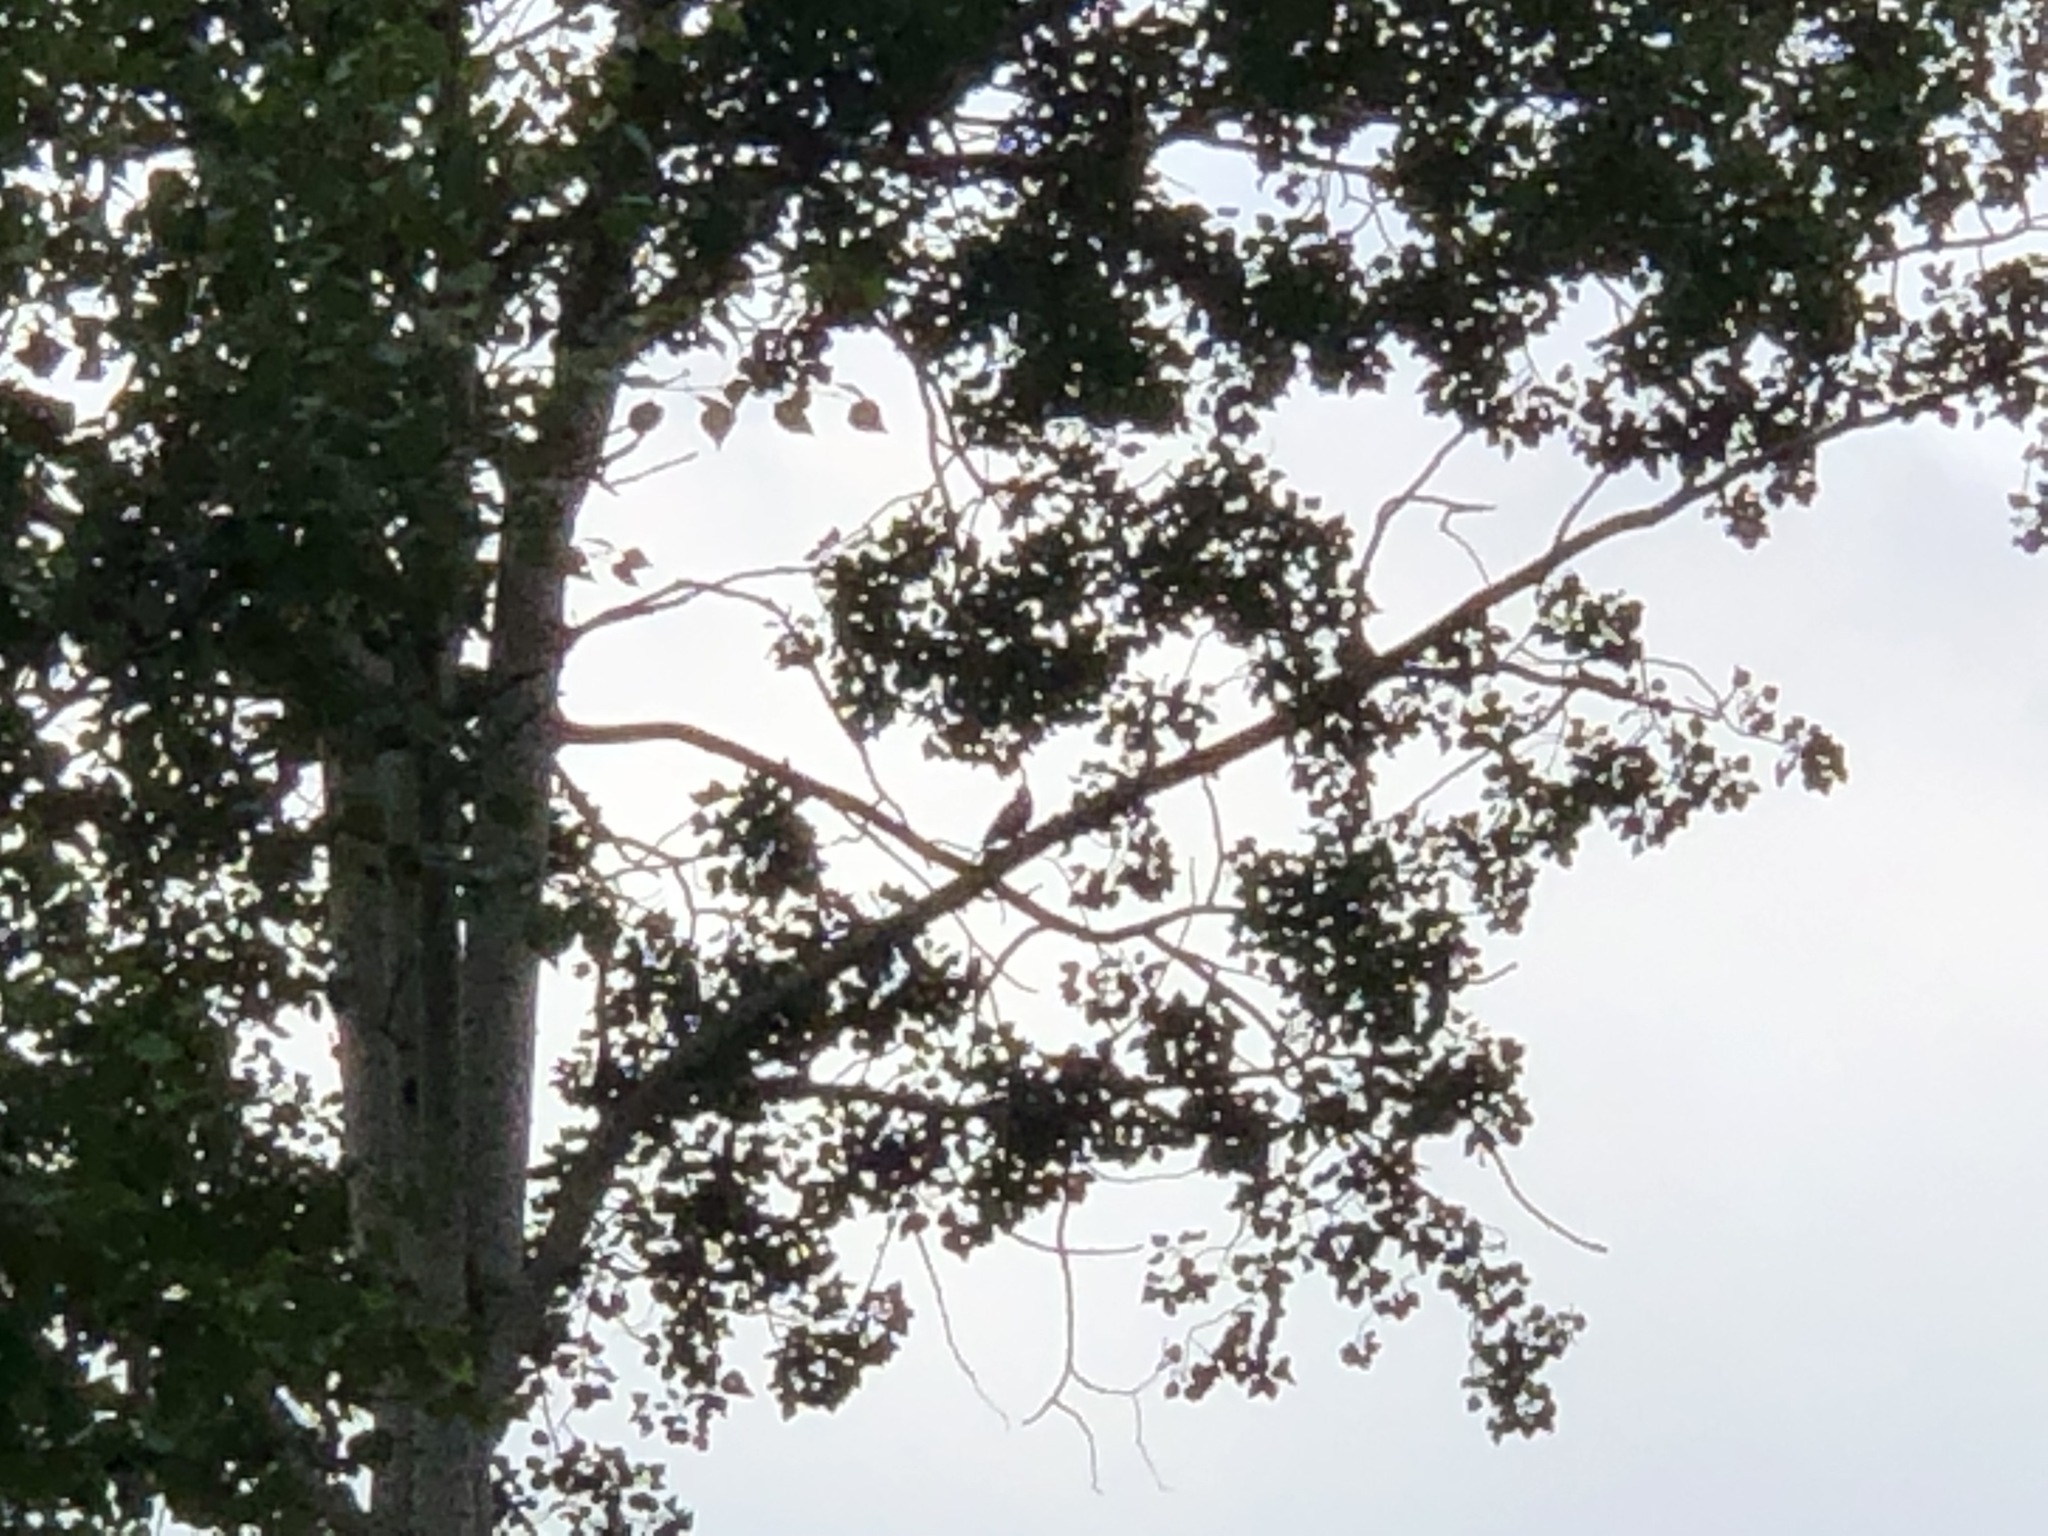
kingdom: Animalia
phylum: Chordata
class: Aves
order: Piciformes
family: Picidae
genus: Colaptes
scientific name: Colaptes auratus
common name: Northern flicker
